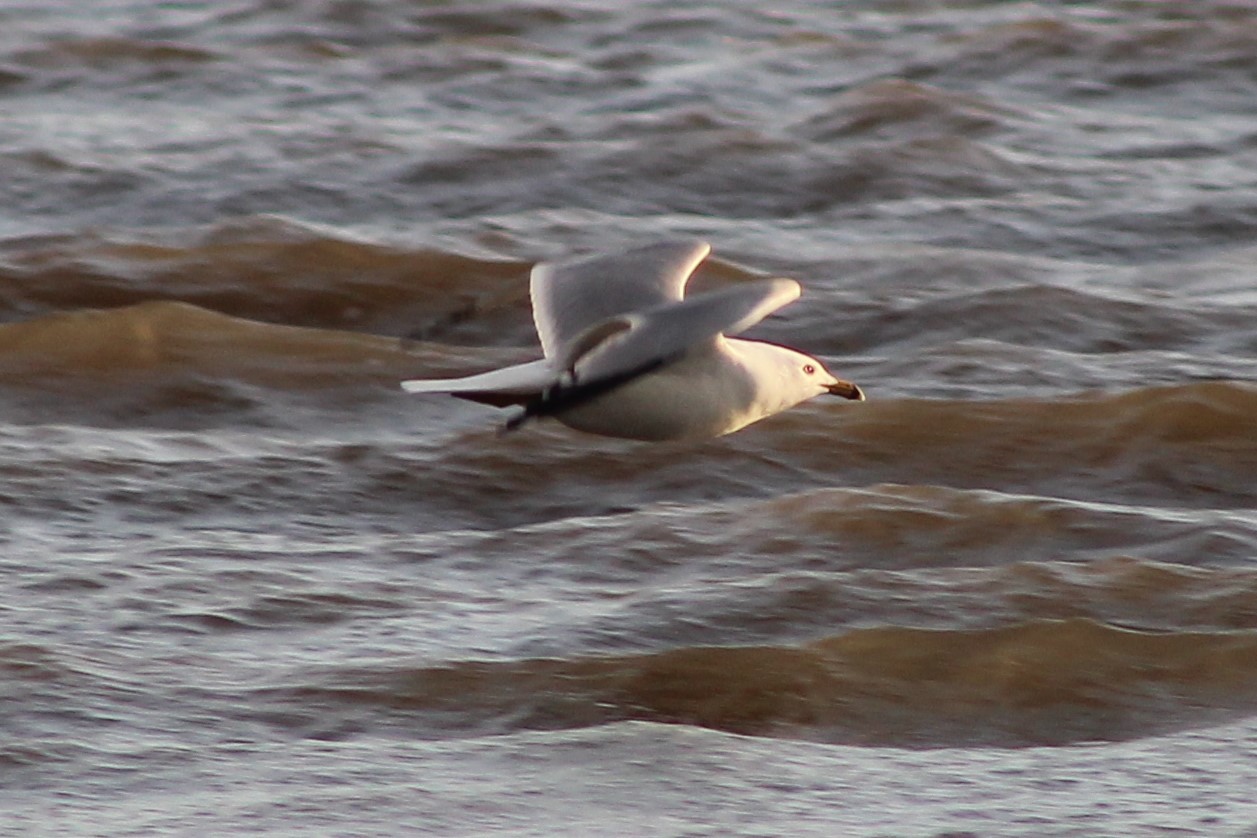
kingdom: Animalia
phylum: Chordata
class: Aves
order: Charadriiformes
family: Laridae
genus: Larus
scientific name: Larus delawarensis
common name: Ring-billed gull
